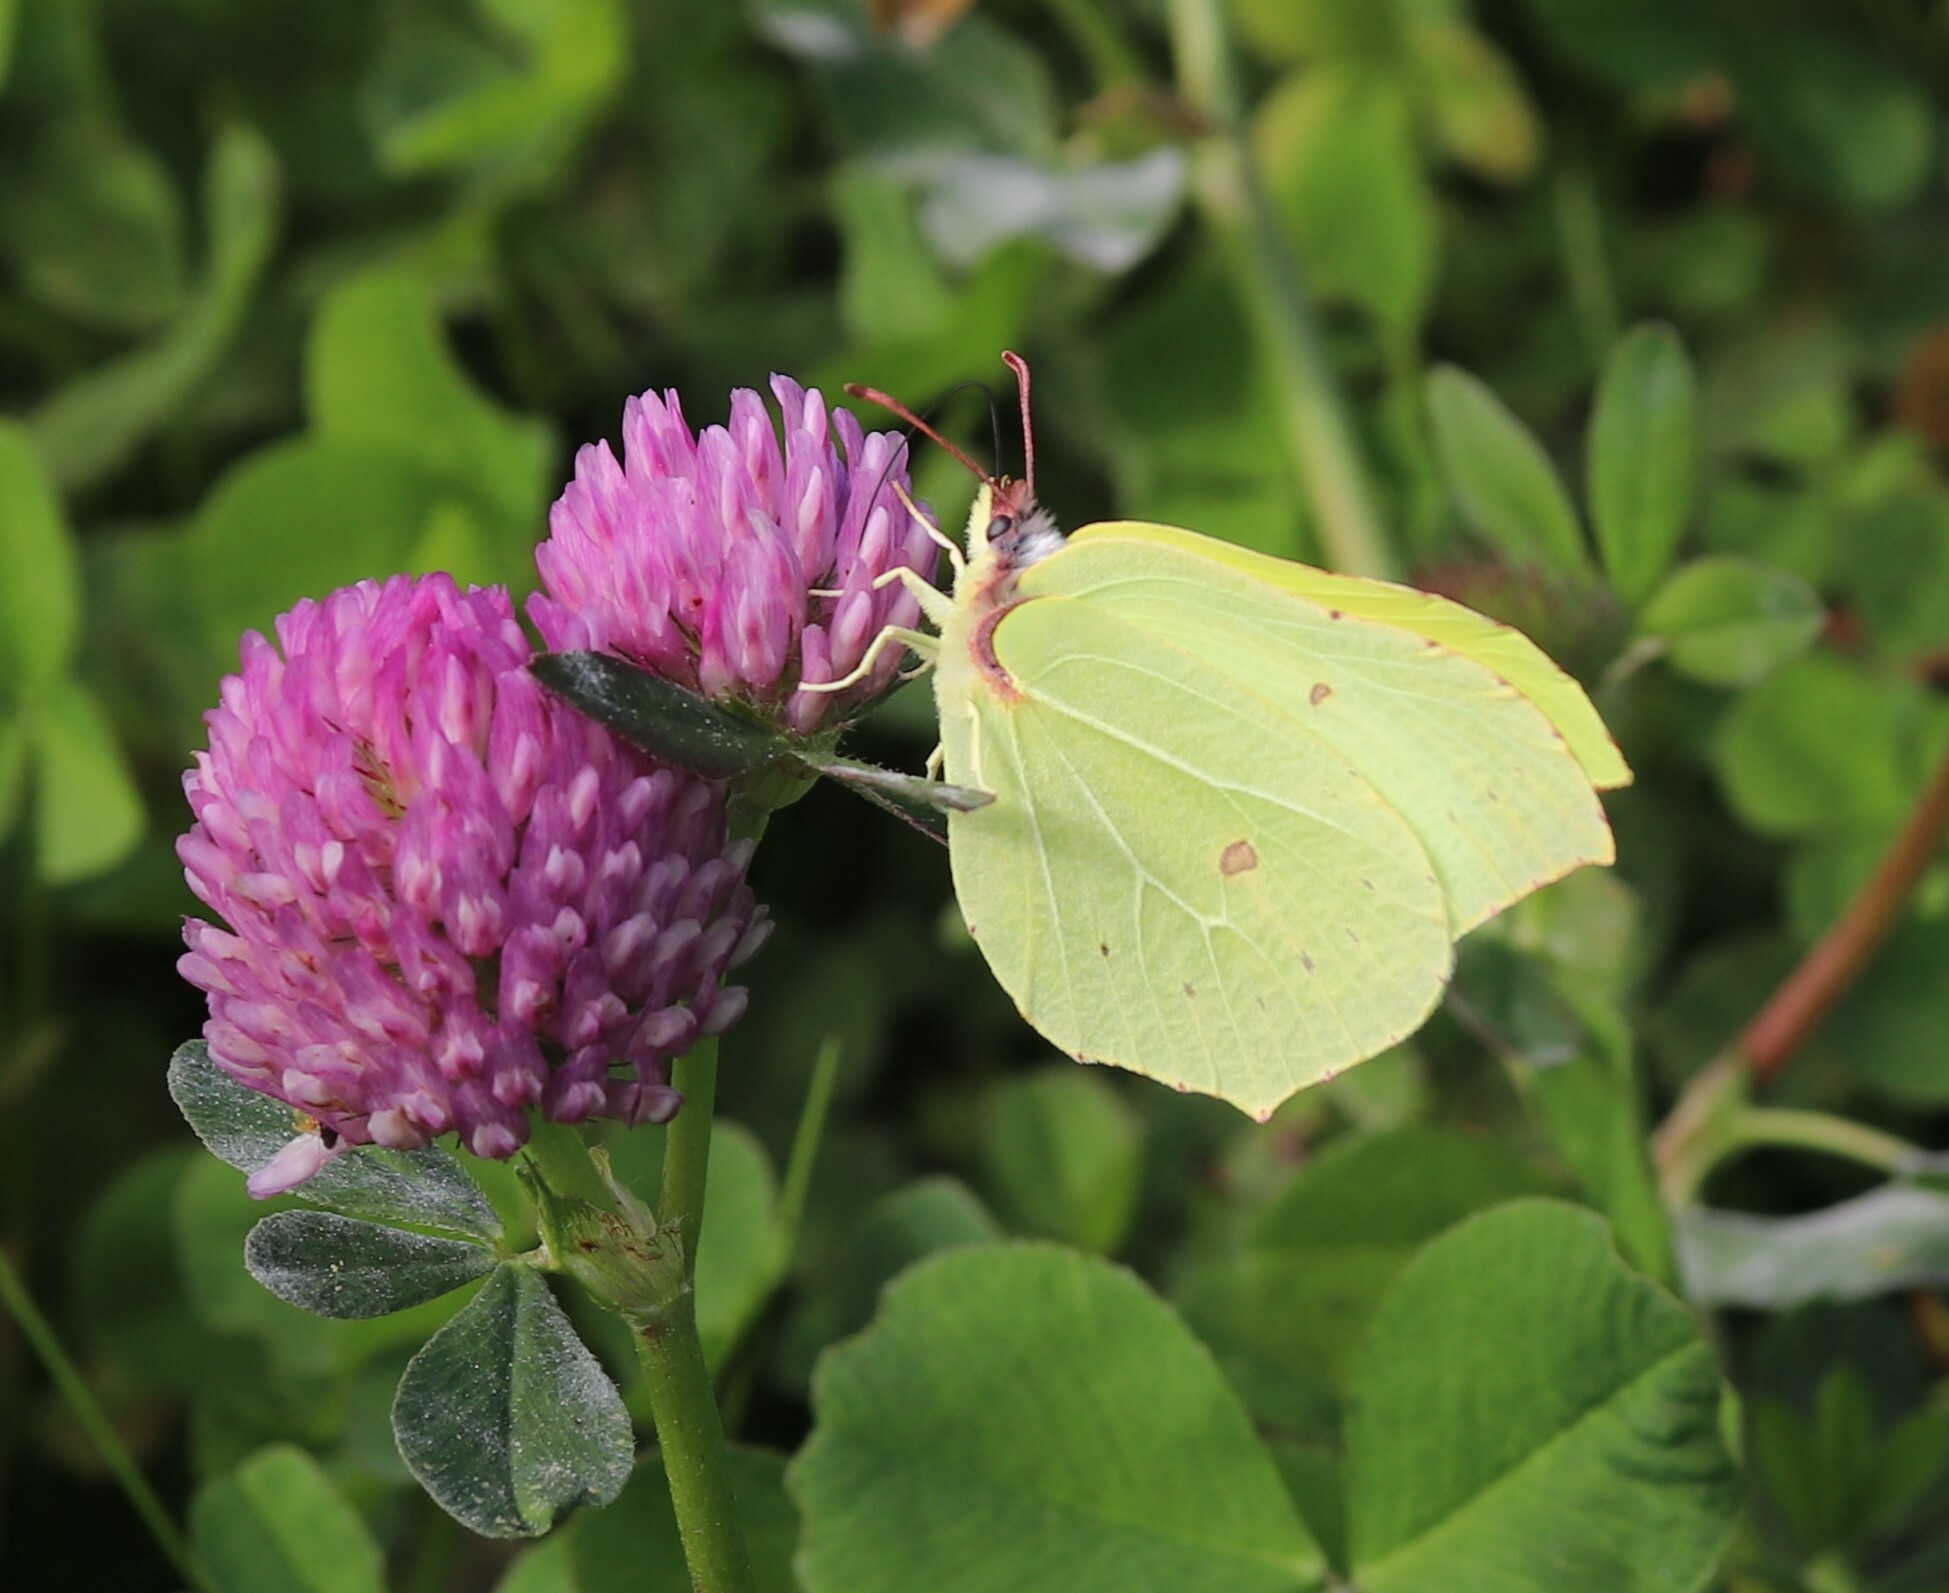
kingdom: Animalia
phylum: Arthropoda
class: Insecta
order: Lepidoptera
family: Pieridae
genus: Gonepteryx
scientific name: Gonepteryx rhamni
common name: Brimstone
